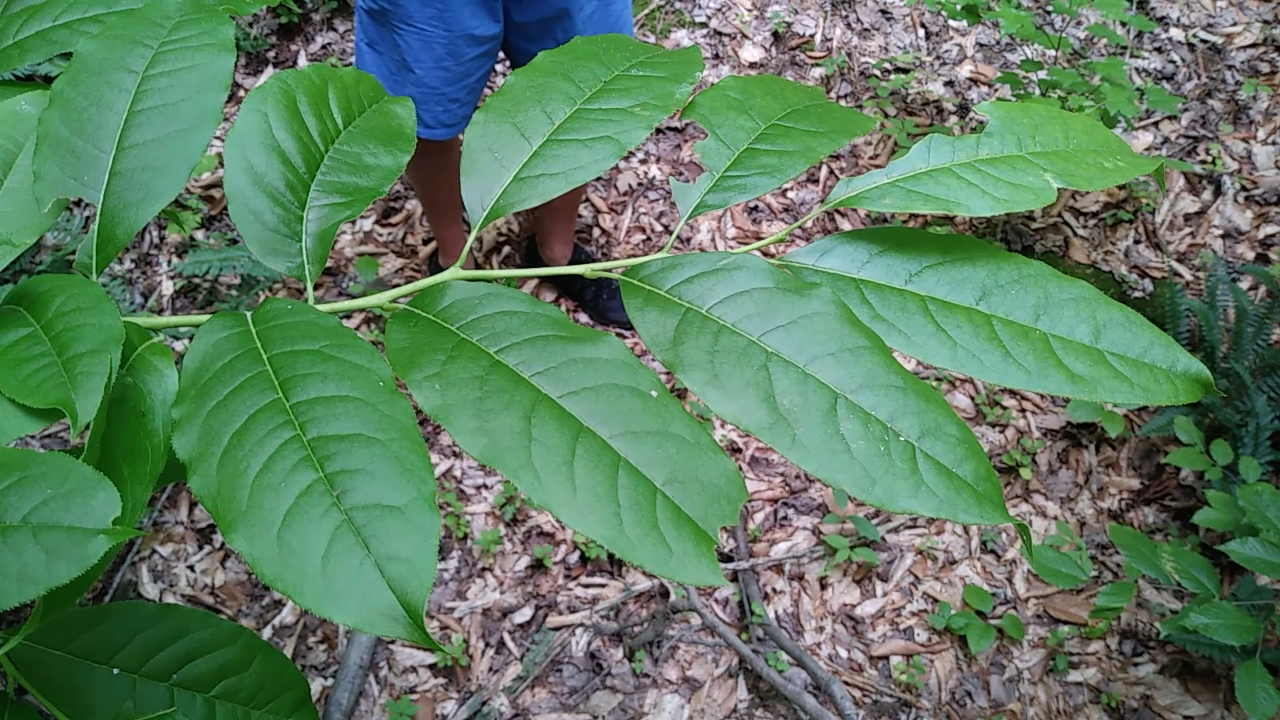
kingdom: Plantae
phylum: Tracheophyta
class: Magnoliopsida
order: Ericales
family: Ericaceae
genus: Oxydendrum
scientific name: Oxydendrum arboreum
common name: Sourwood
